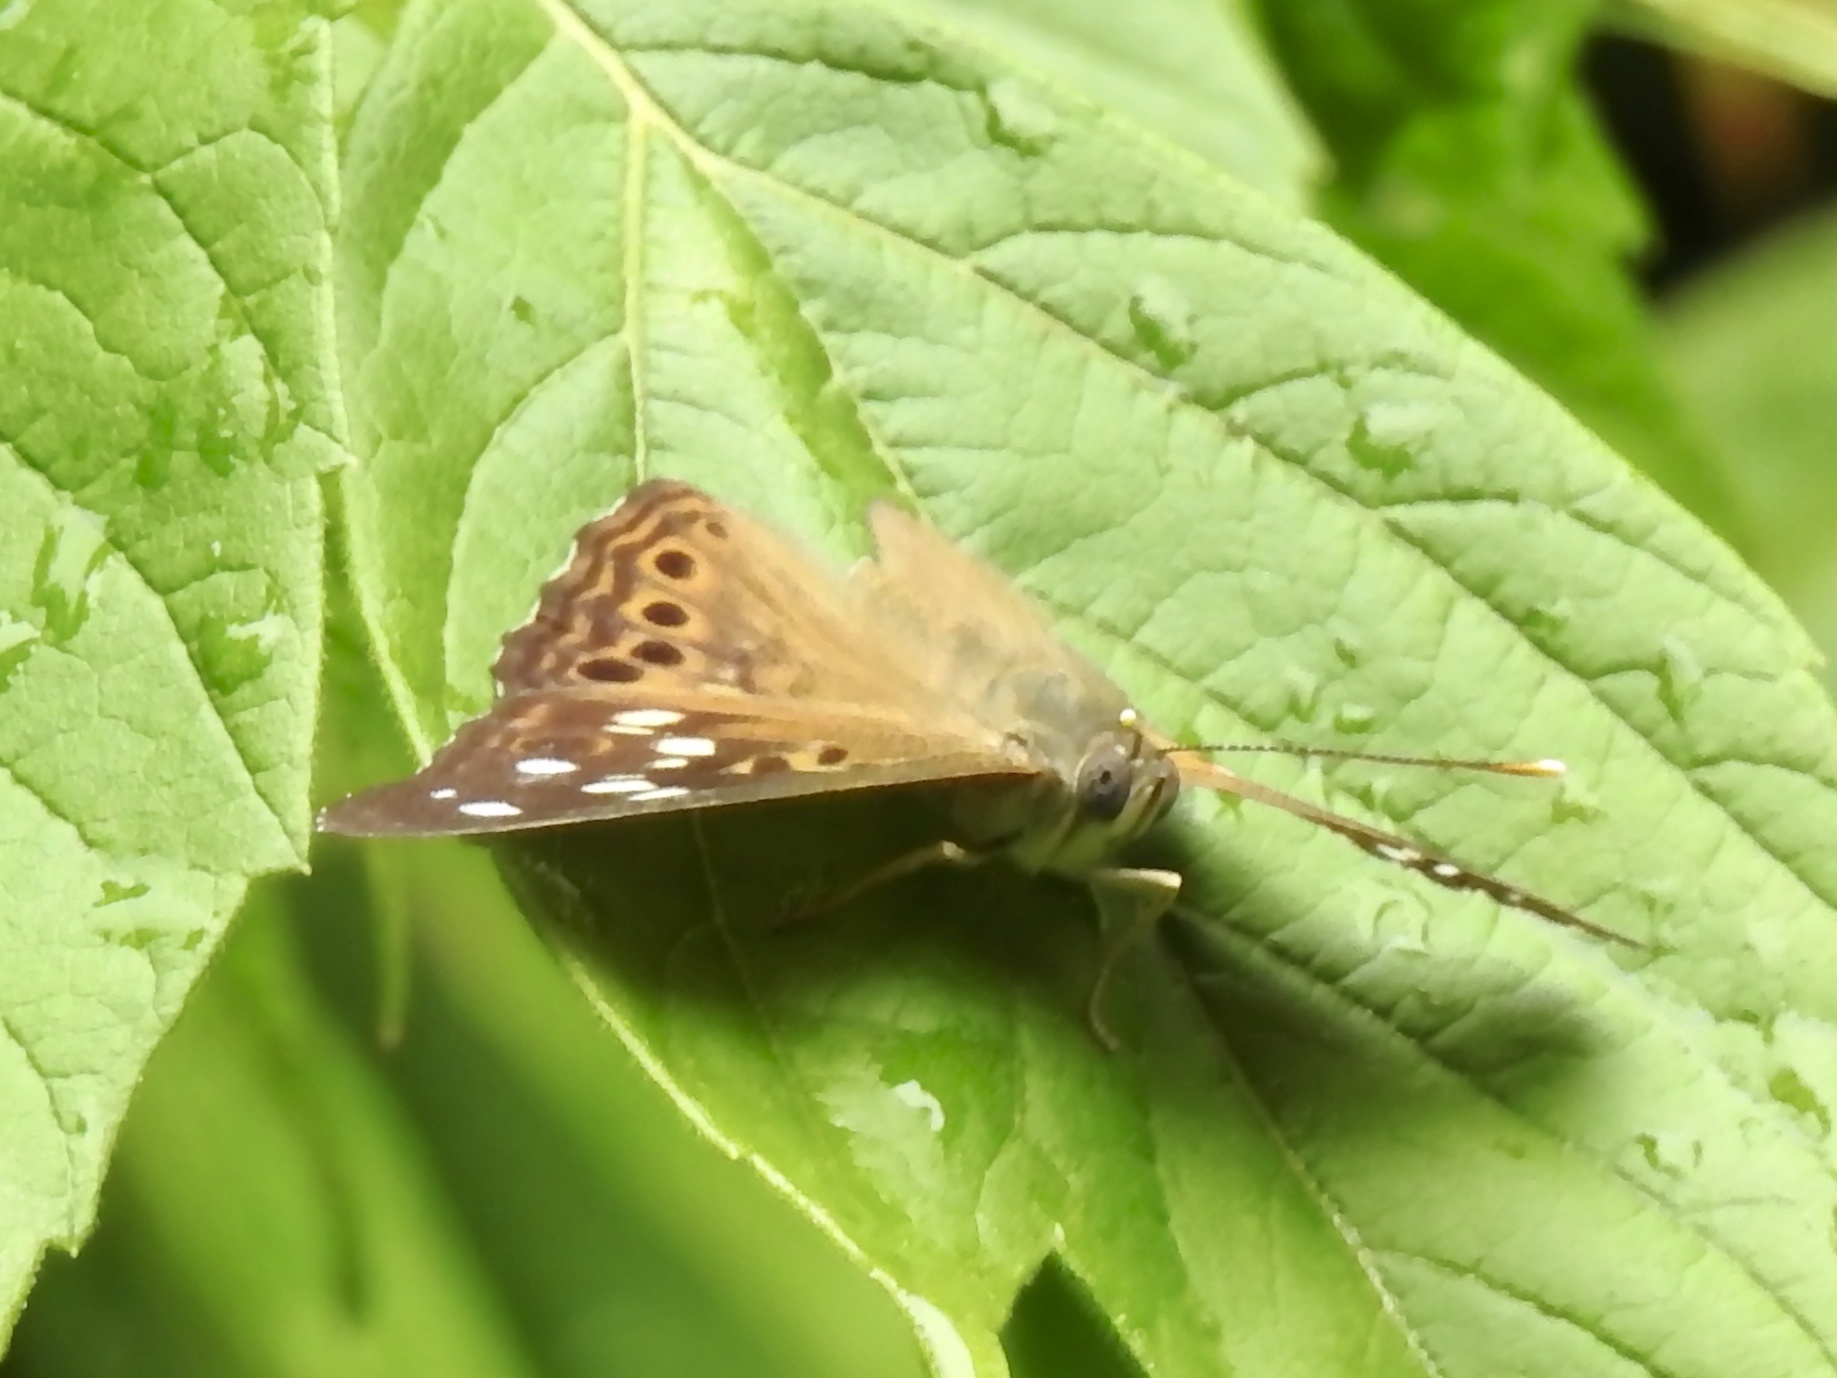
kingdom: Animalia
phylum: Arthropoda
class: Insecta
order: Lepidoptera
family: Nymphalidae
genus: Asterocampa
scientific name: Asterocampa celtis
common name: Hackberry emperor
